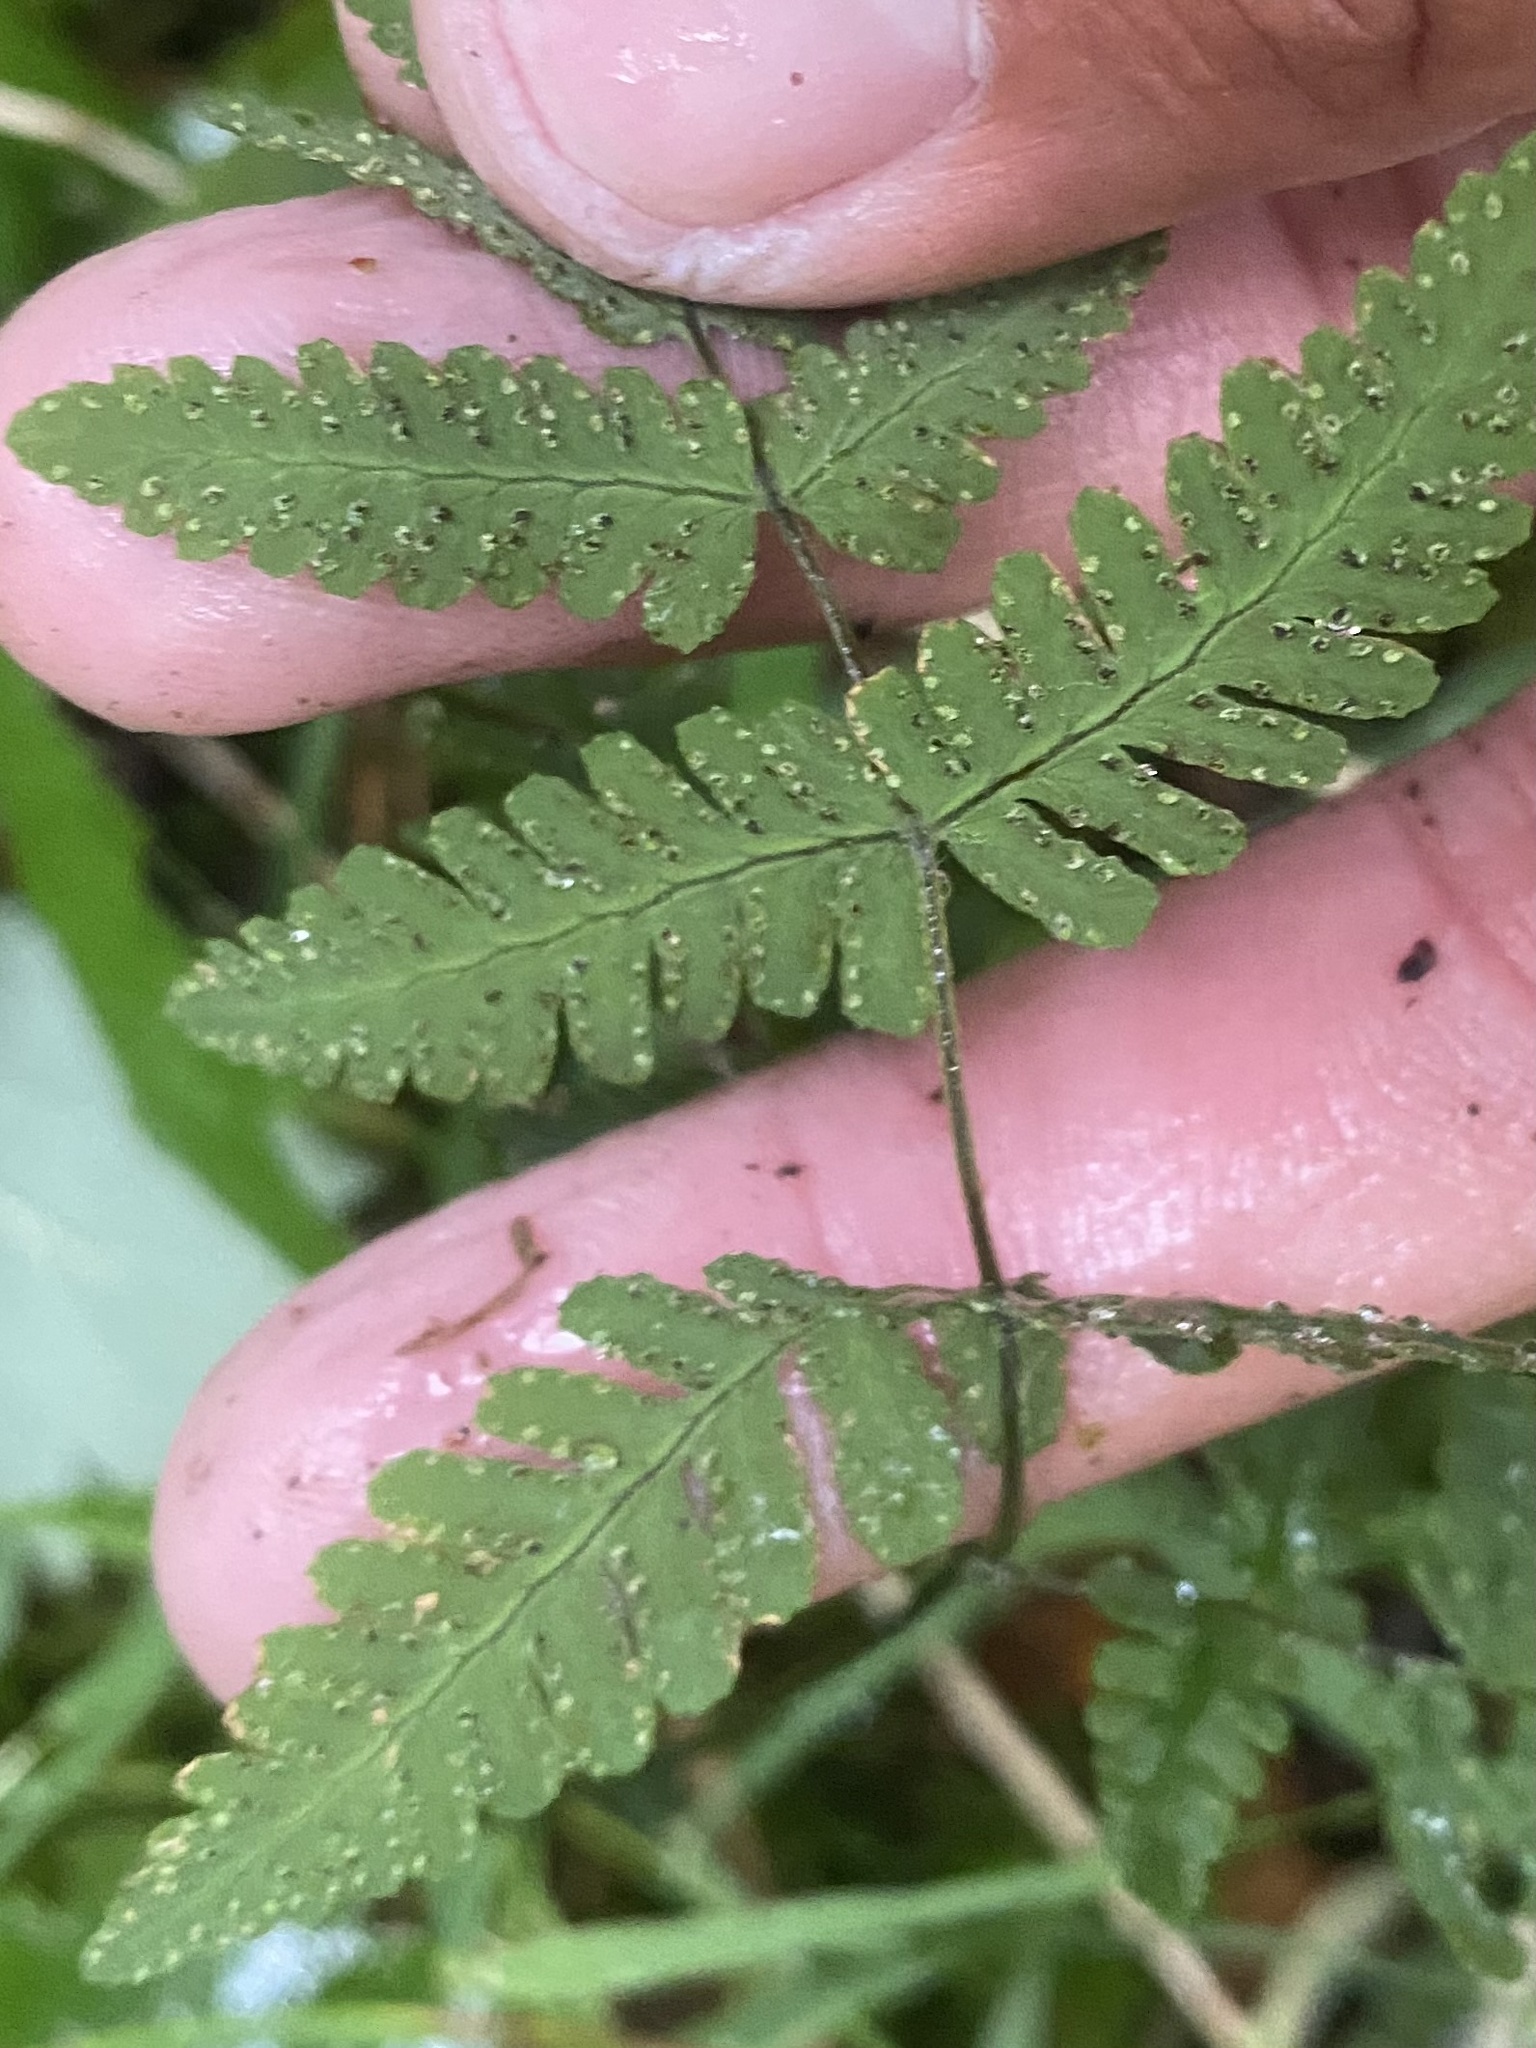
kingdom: Plantae
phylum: Tracheophyta
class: Polypodiopsida
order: Polypodiales
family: Cystopteridaceae
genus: Gymnocarpium
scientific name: Gymnocarpium jessoense
